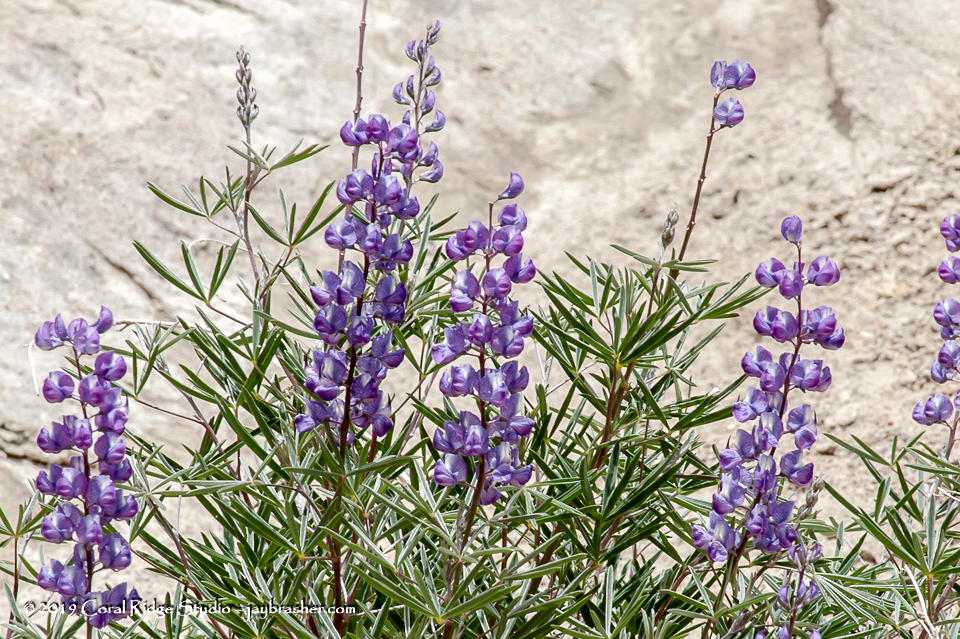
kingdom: Plantae
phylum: Tracheophyta
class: Magnoliopsida
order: Fabales
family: Fabaceae
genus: Lupinus
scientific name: Lupinus argenteus
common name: Silvery lupine
